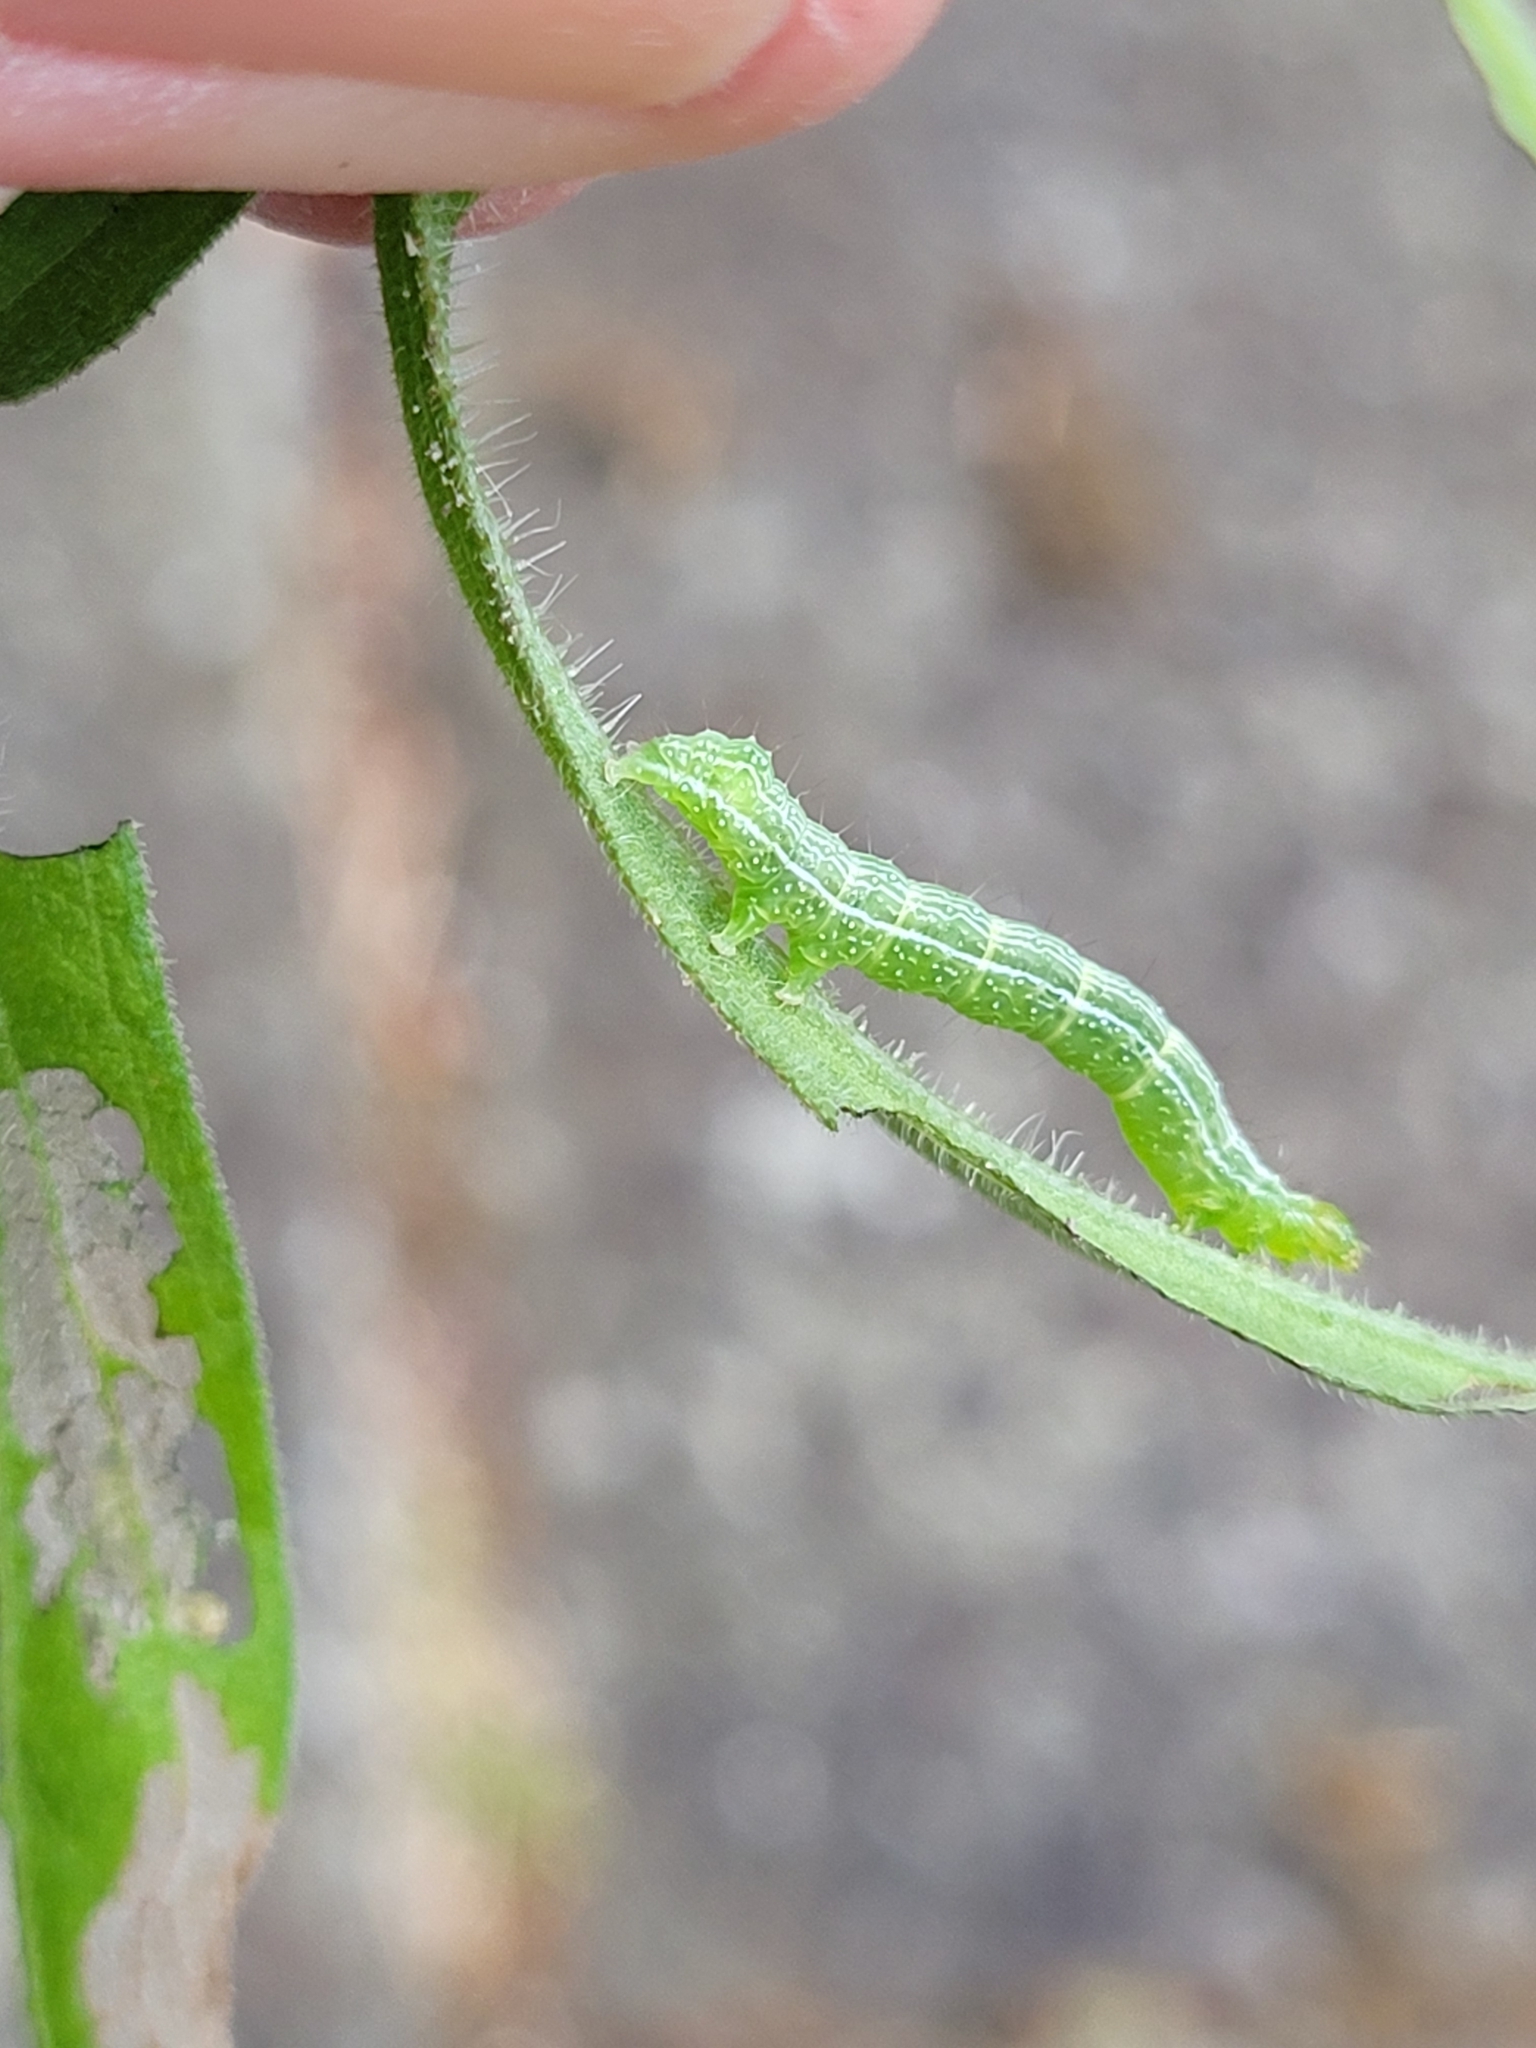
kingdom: Animalia
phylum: Arthropoda
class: Insecta
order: Lepidoptera
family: Noctuidae
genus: Chrysodeixis
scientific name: Chrysodeixis eriosoma
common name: Green garden looper
